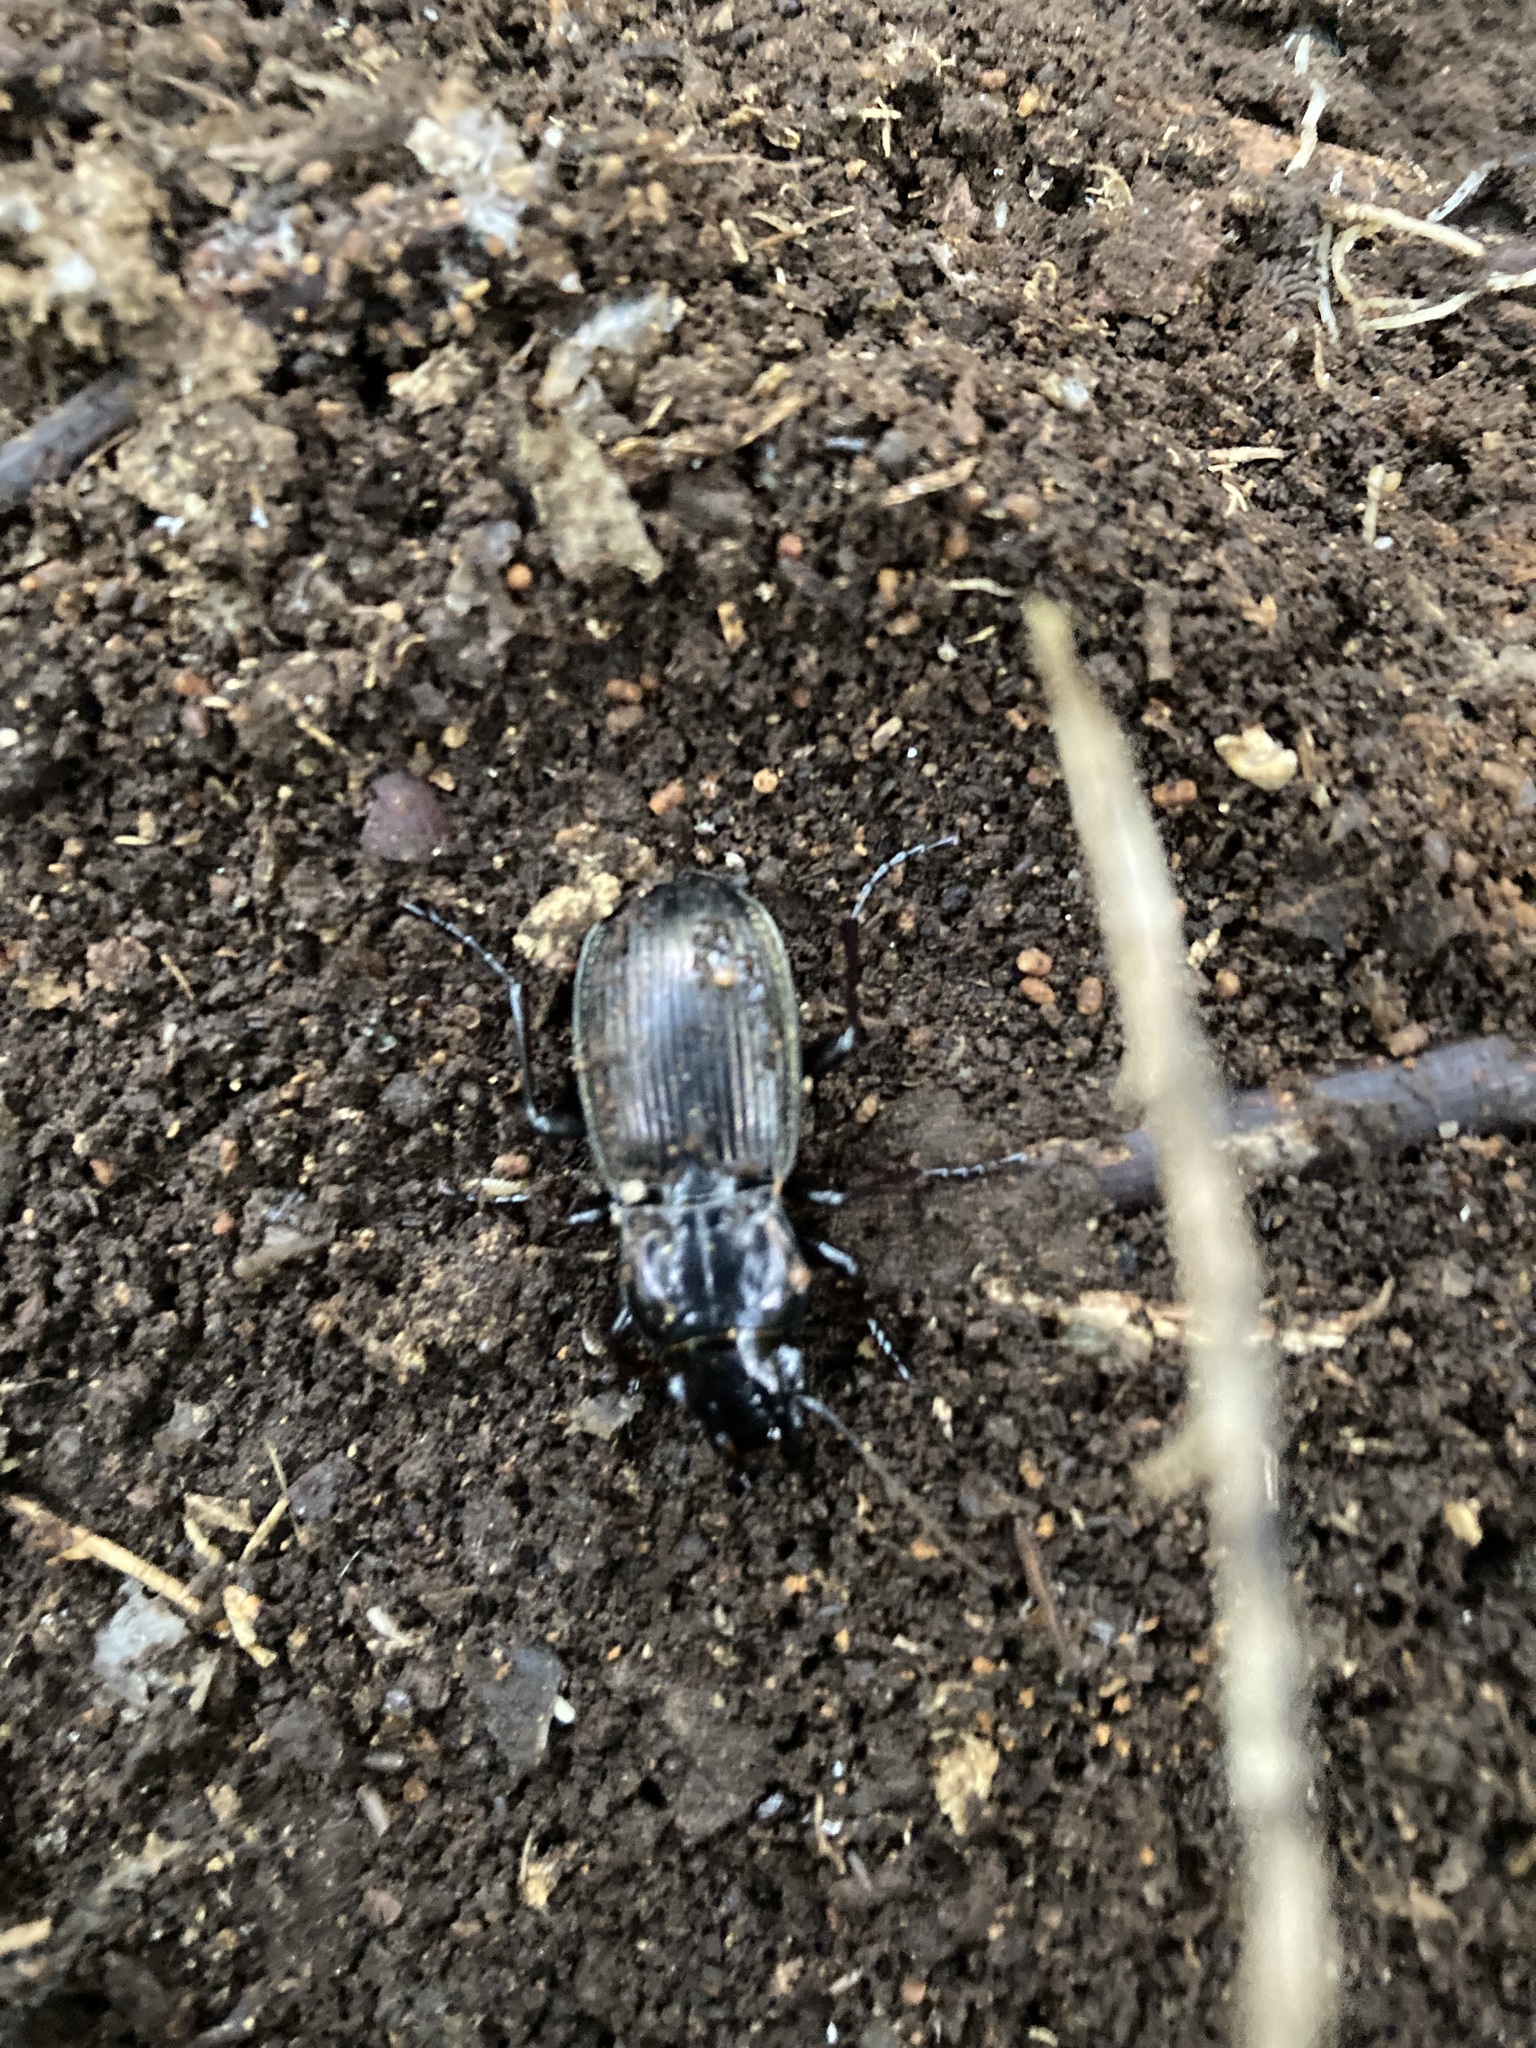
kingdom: Animalia
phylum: Arthropoda
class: Insecta
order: Coleoptera
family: Carabidae
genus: Megadromus
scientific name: Megadromus antarcticus
